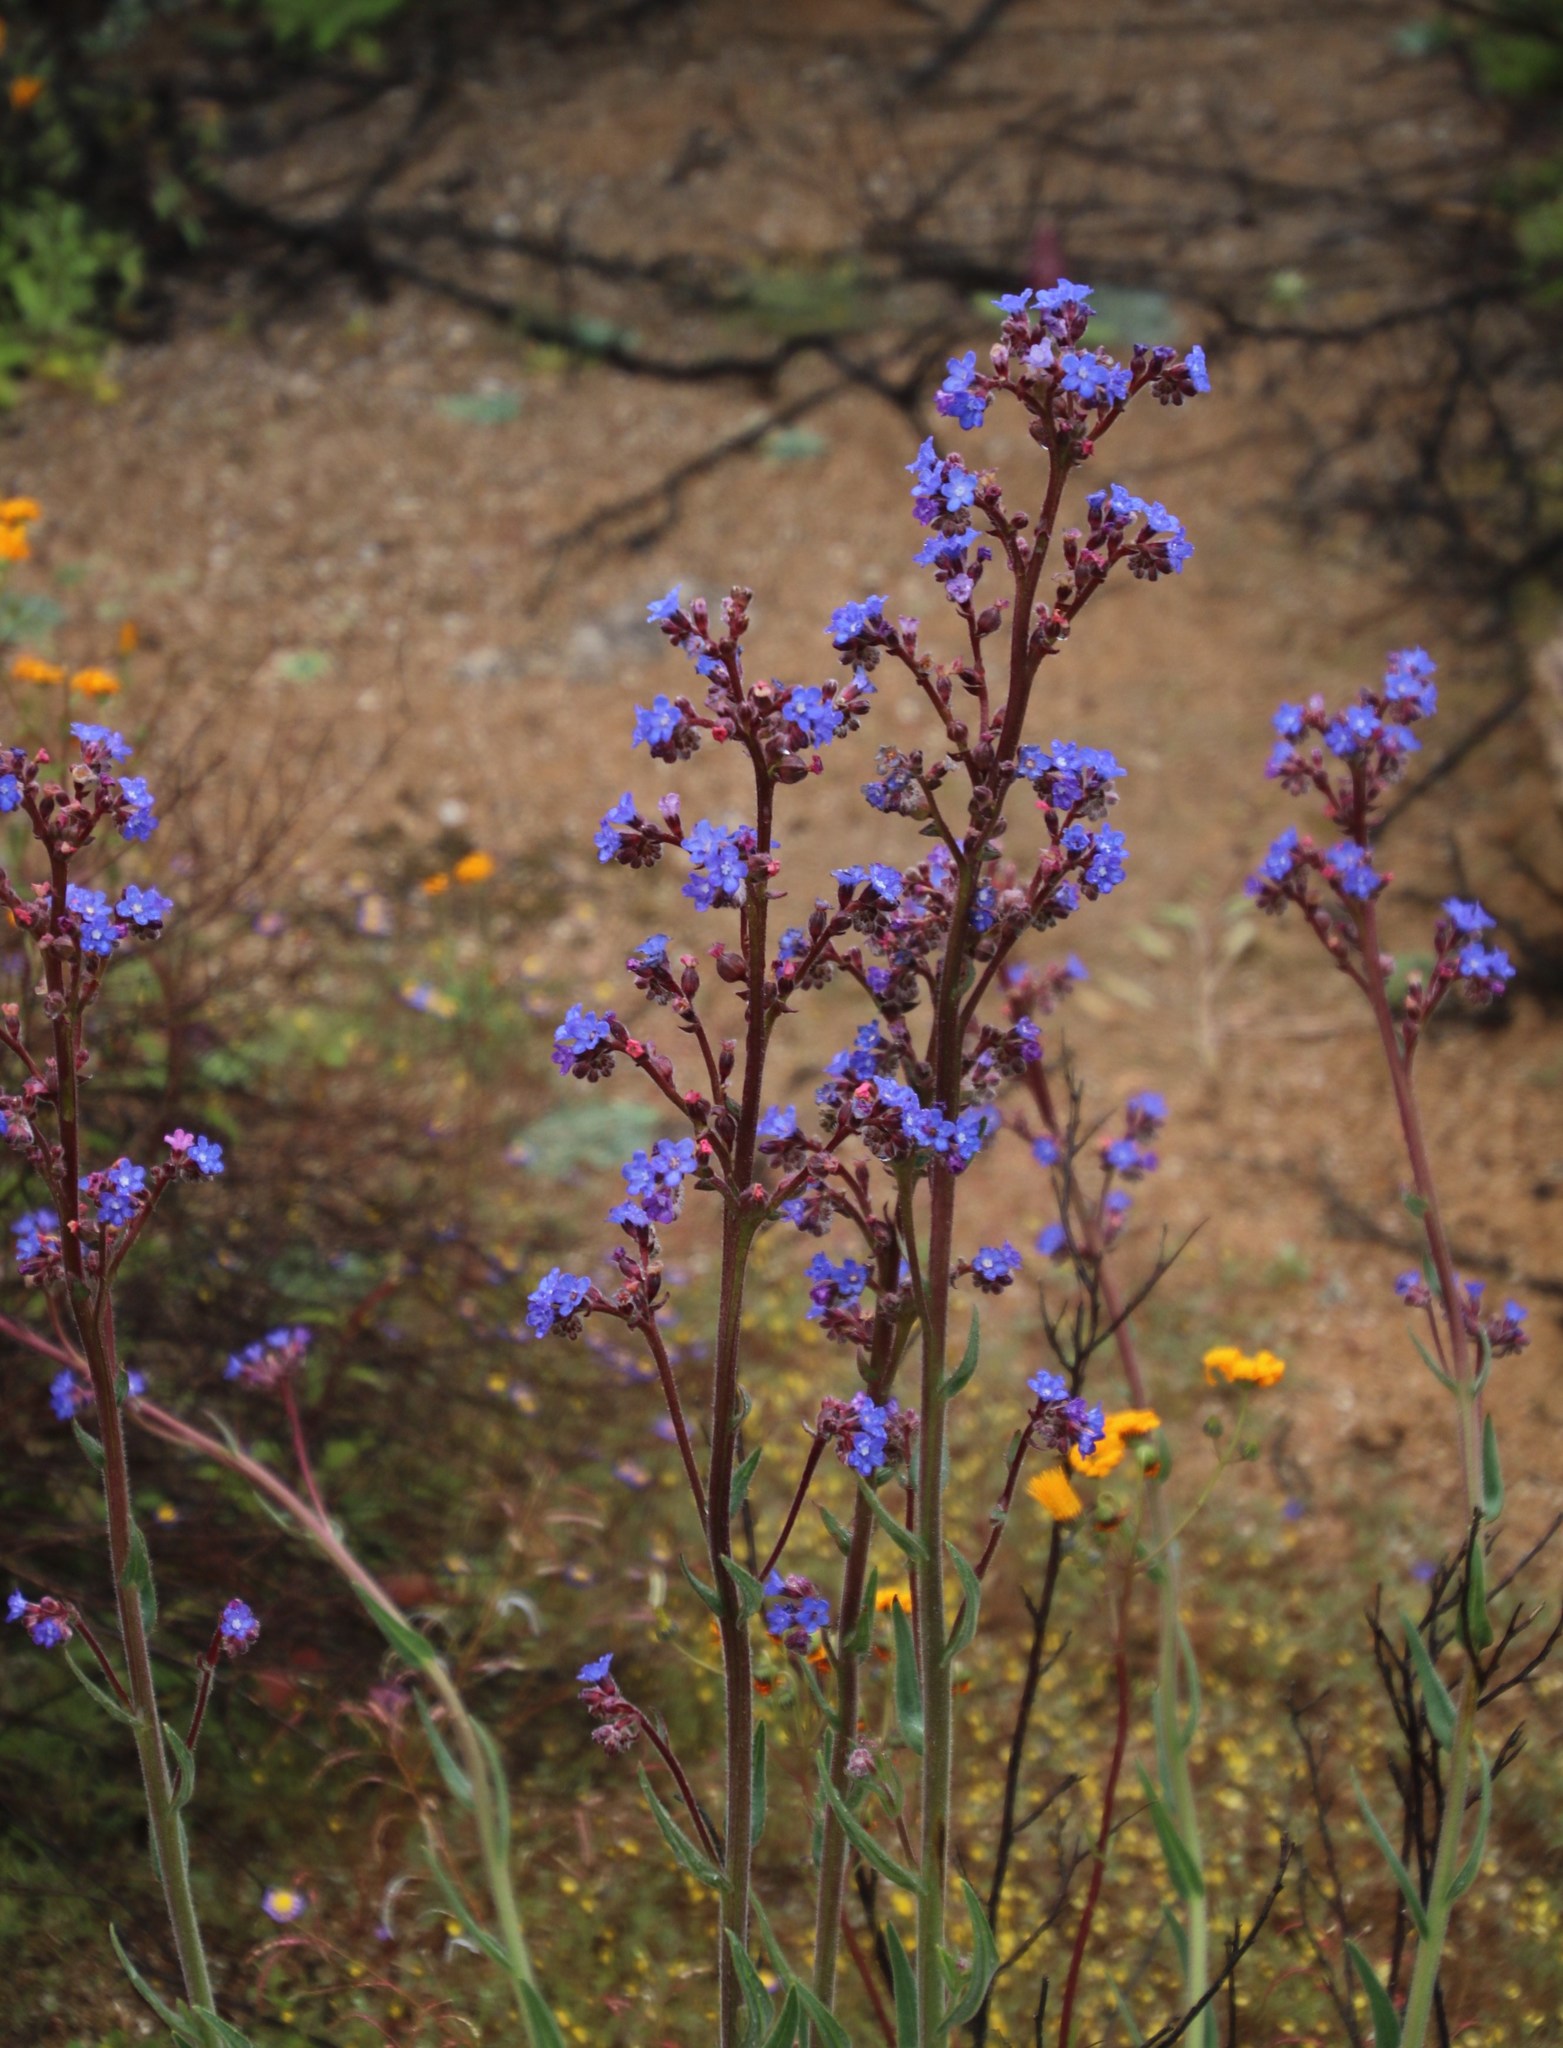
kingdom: Plantae
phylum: Tracheophyta
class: Magnoliopsida
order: Boraginales
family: Boraginaceae
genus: Anchusa
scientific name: Anchusa capensis
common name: Cape bugloss
